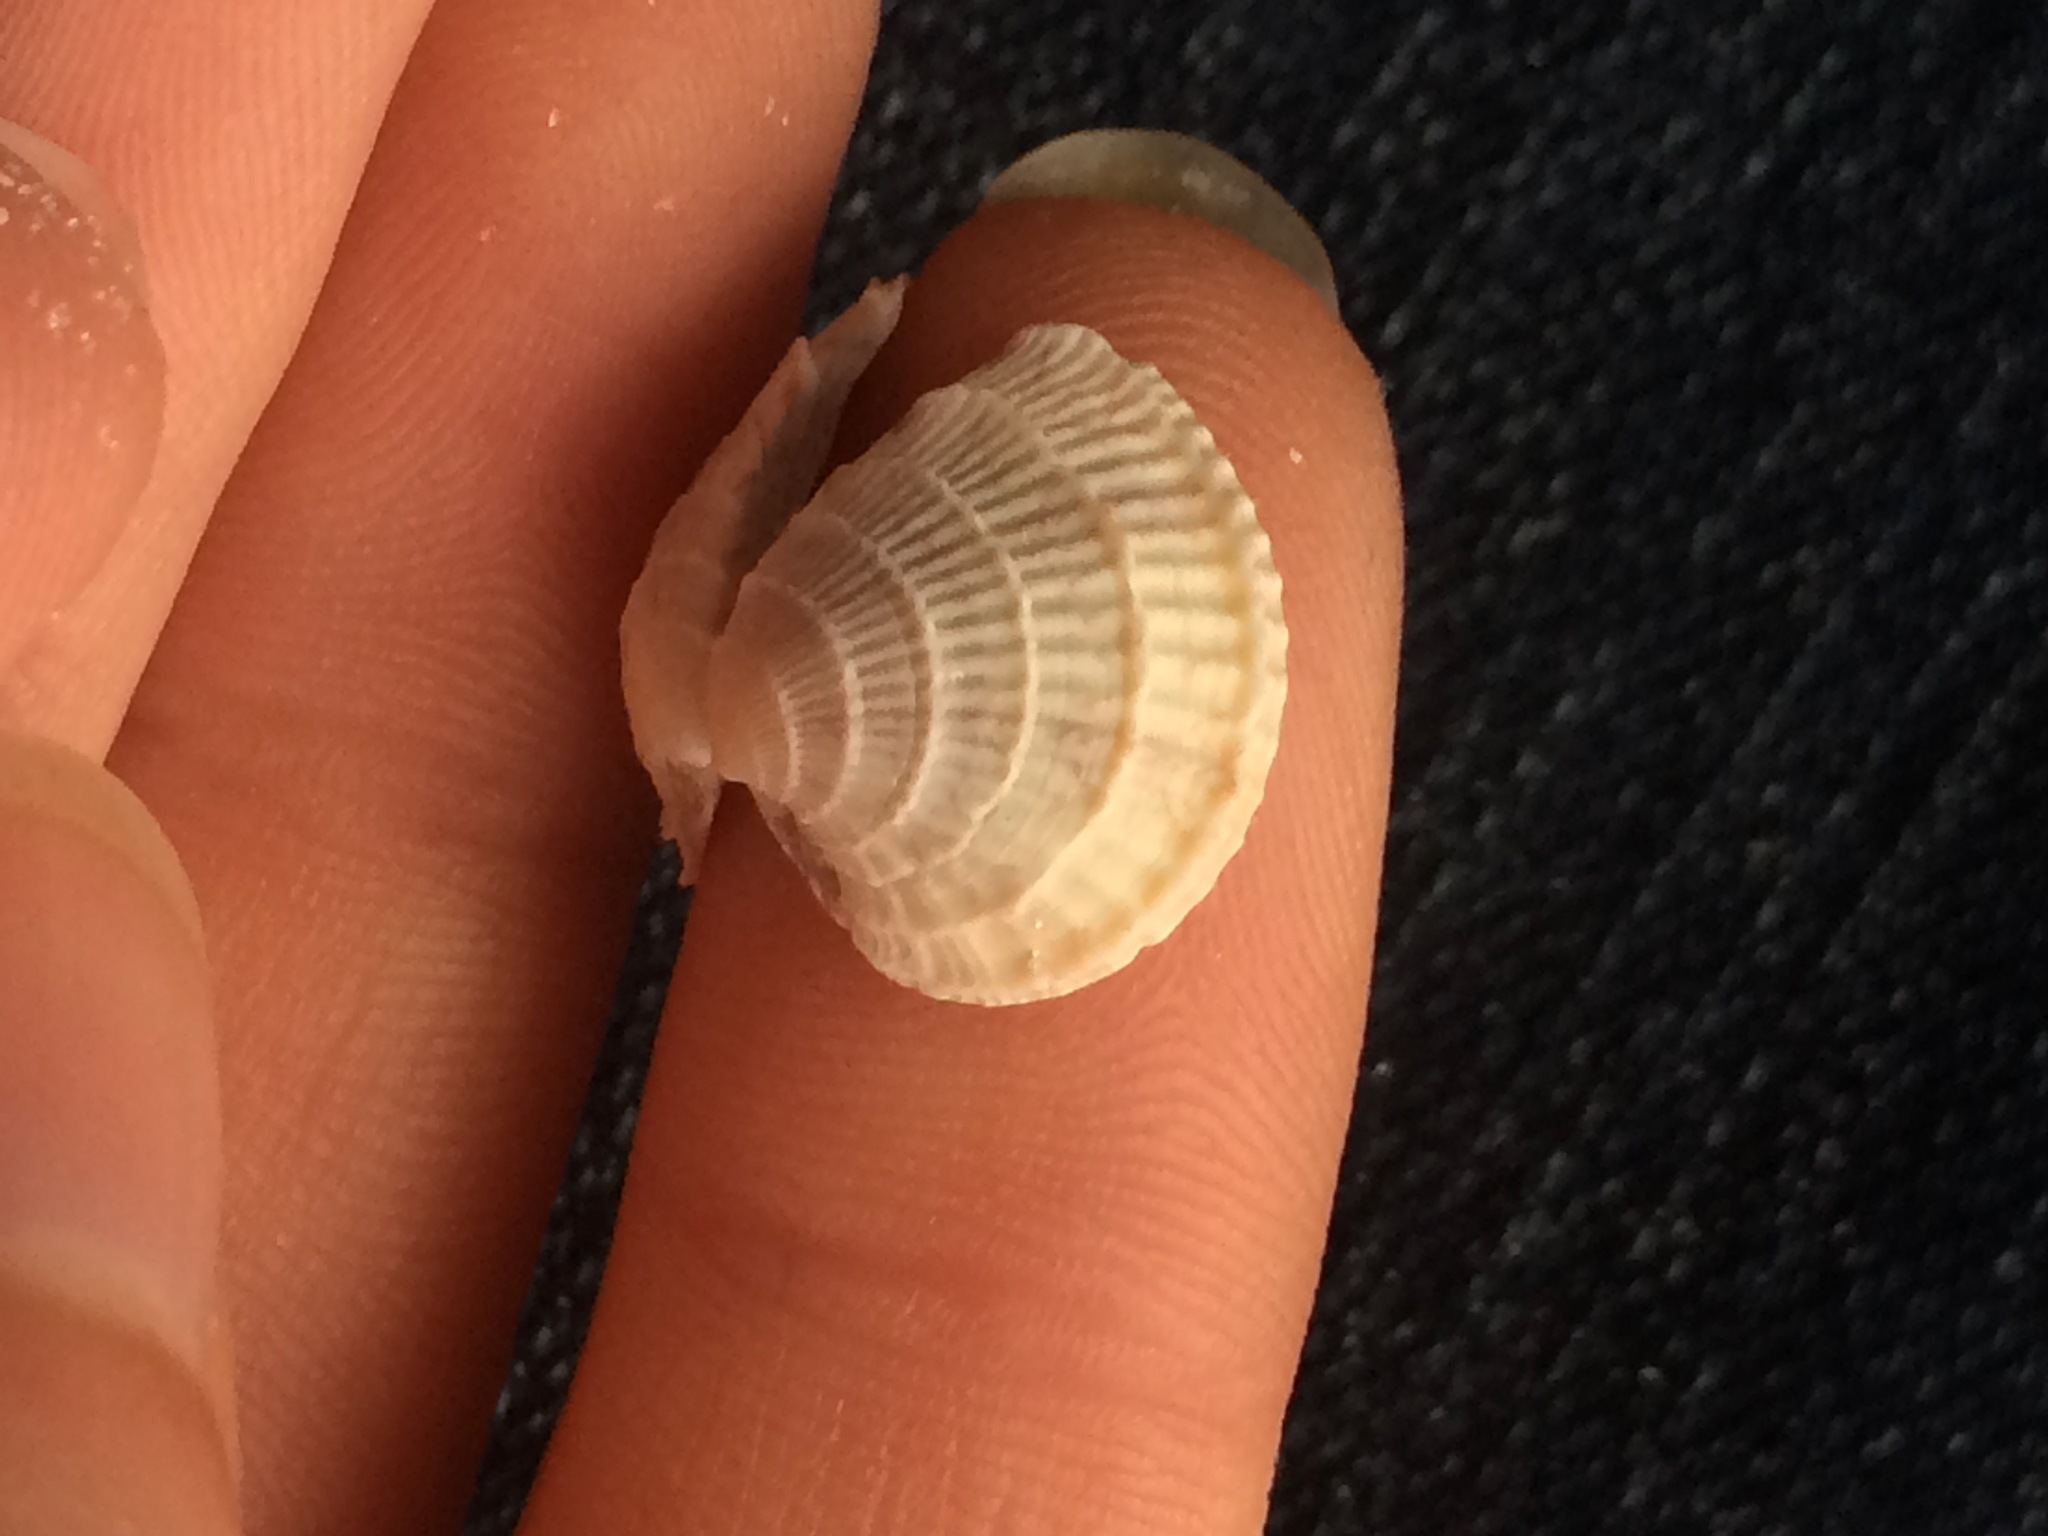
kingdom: Animalia
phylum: Mollusca
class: Bivalvia
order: Venerida
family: Veneridae
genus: Chione
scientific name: Chione elevata
